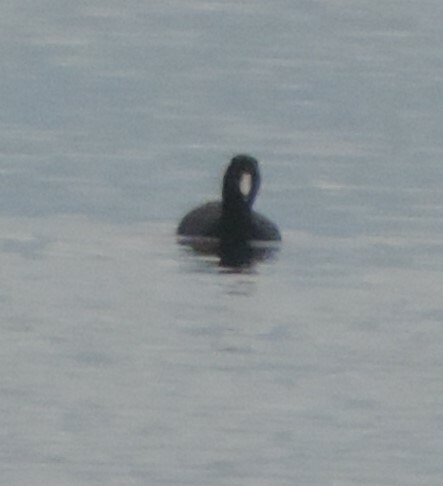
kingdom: Animalia
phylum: Chordata
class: Aves
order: Gruiformes
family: Rallidae
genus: Fulica
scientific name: Fulica americana
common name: American coot
